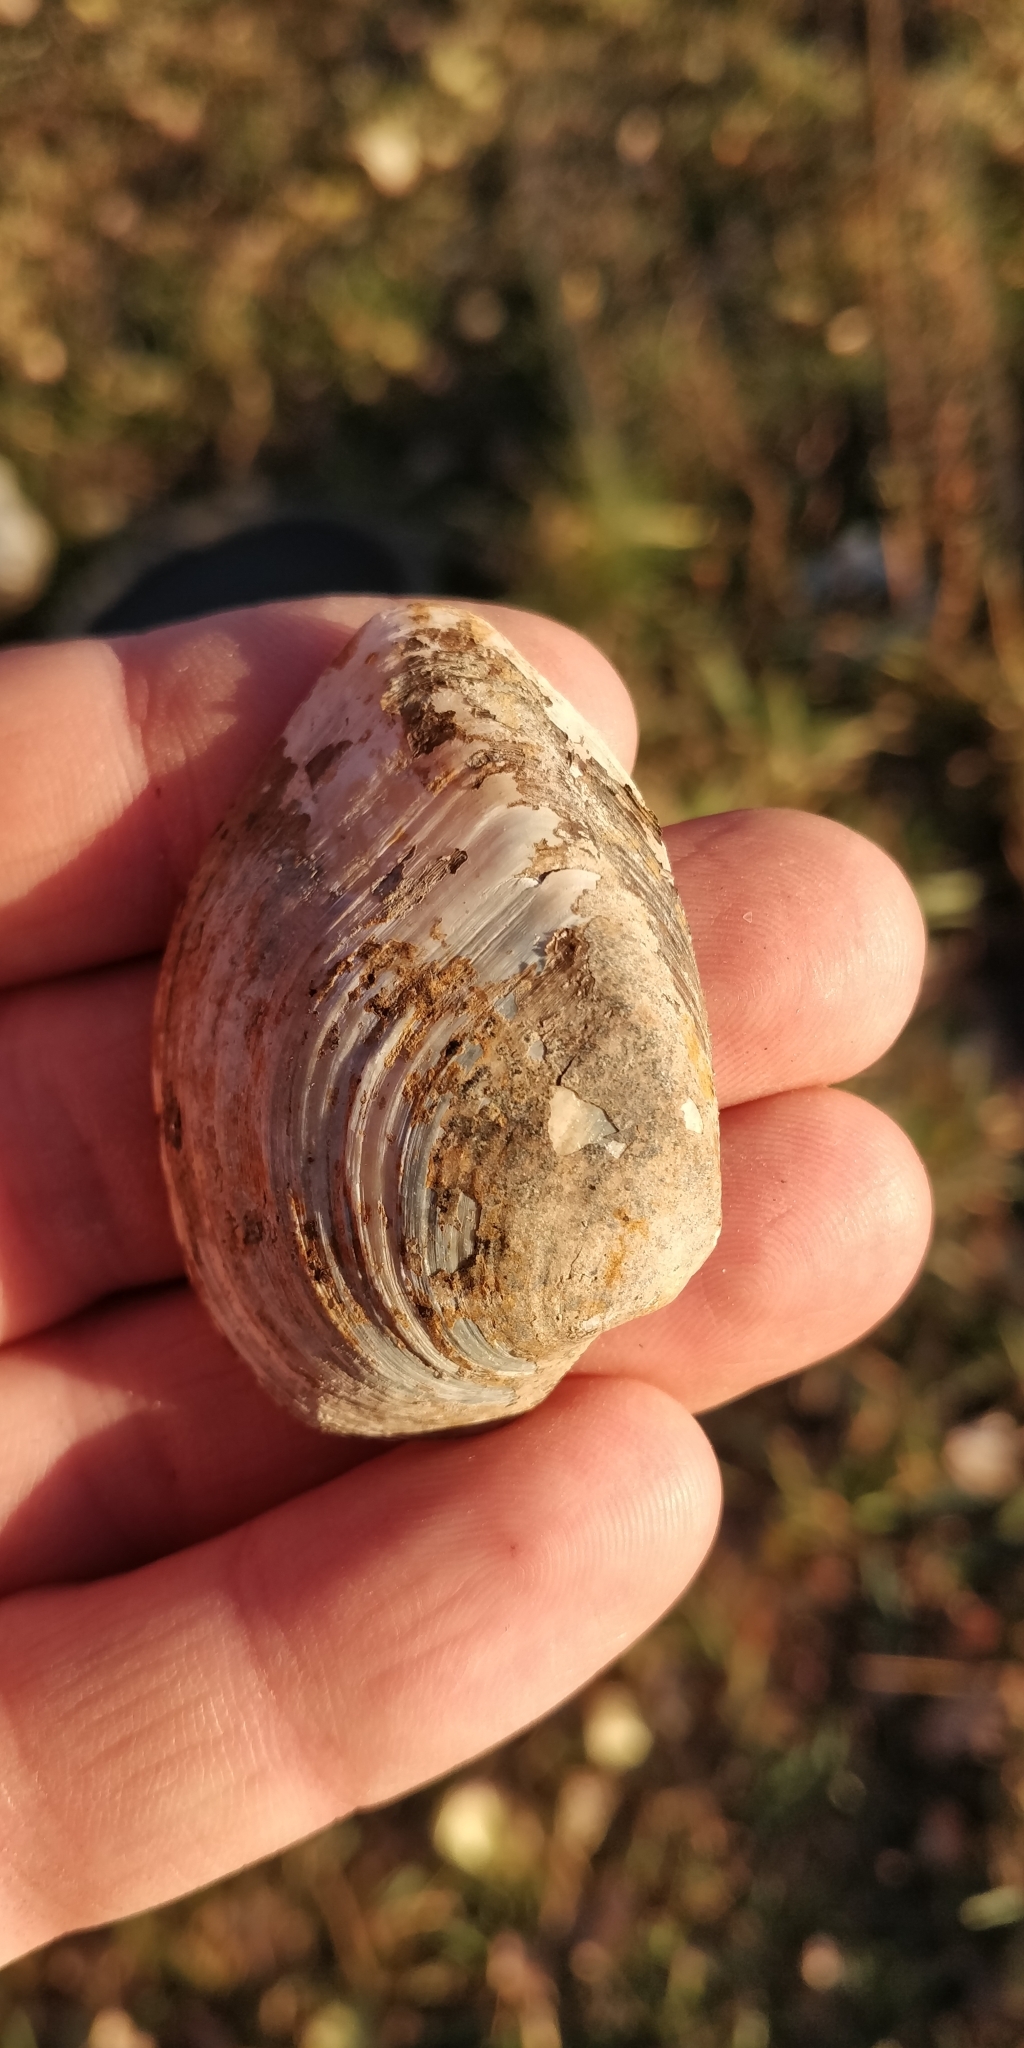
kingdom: Animalia
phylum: Mollusca
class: Bivalvia
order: Unionida
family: Unionidae
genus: Truncilla
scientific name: Truncilla truncata
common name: Deertoe
